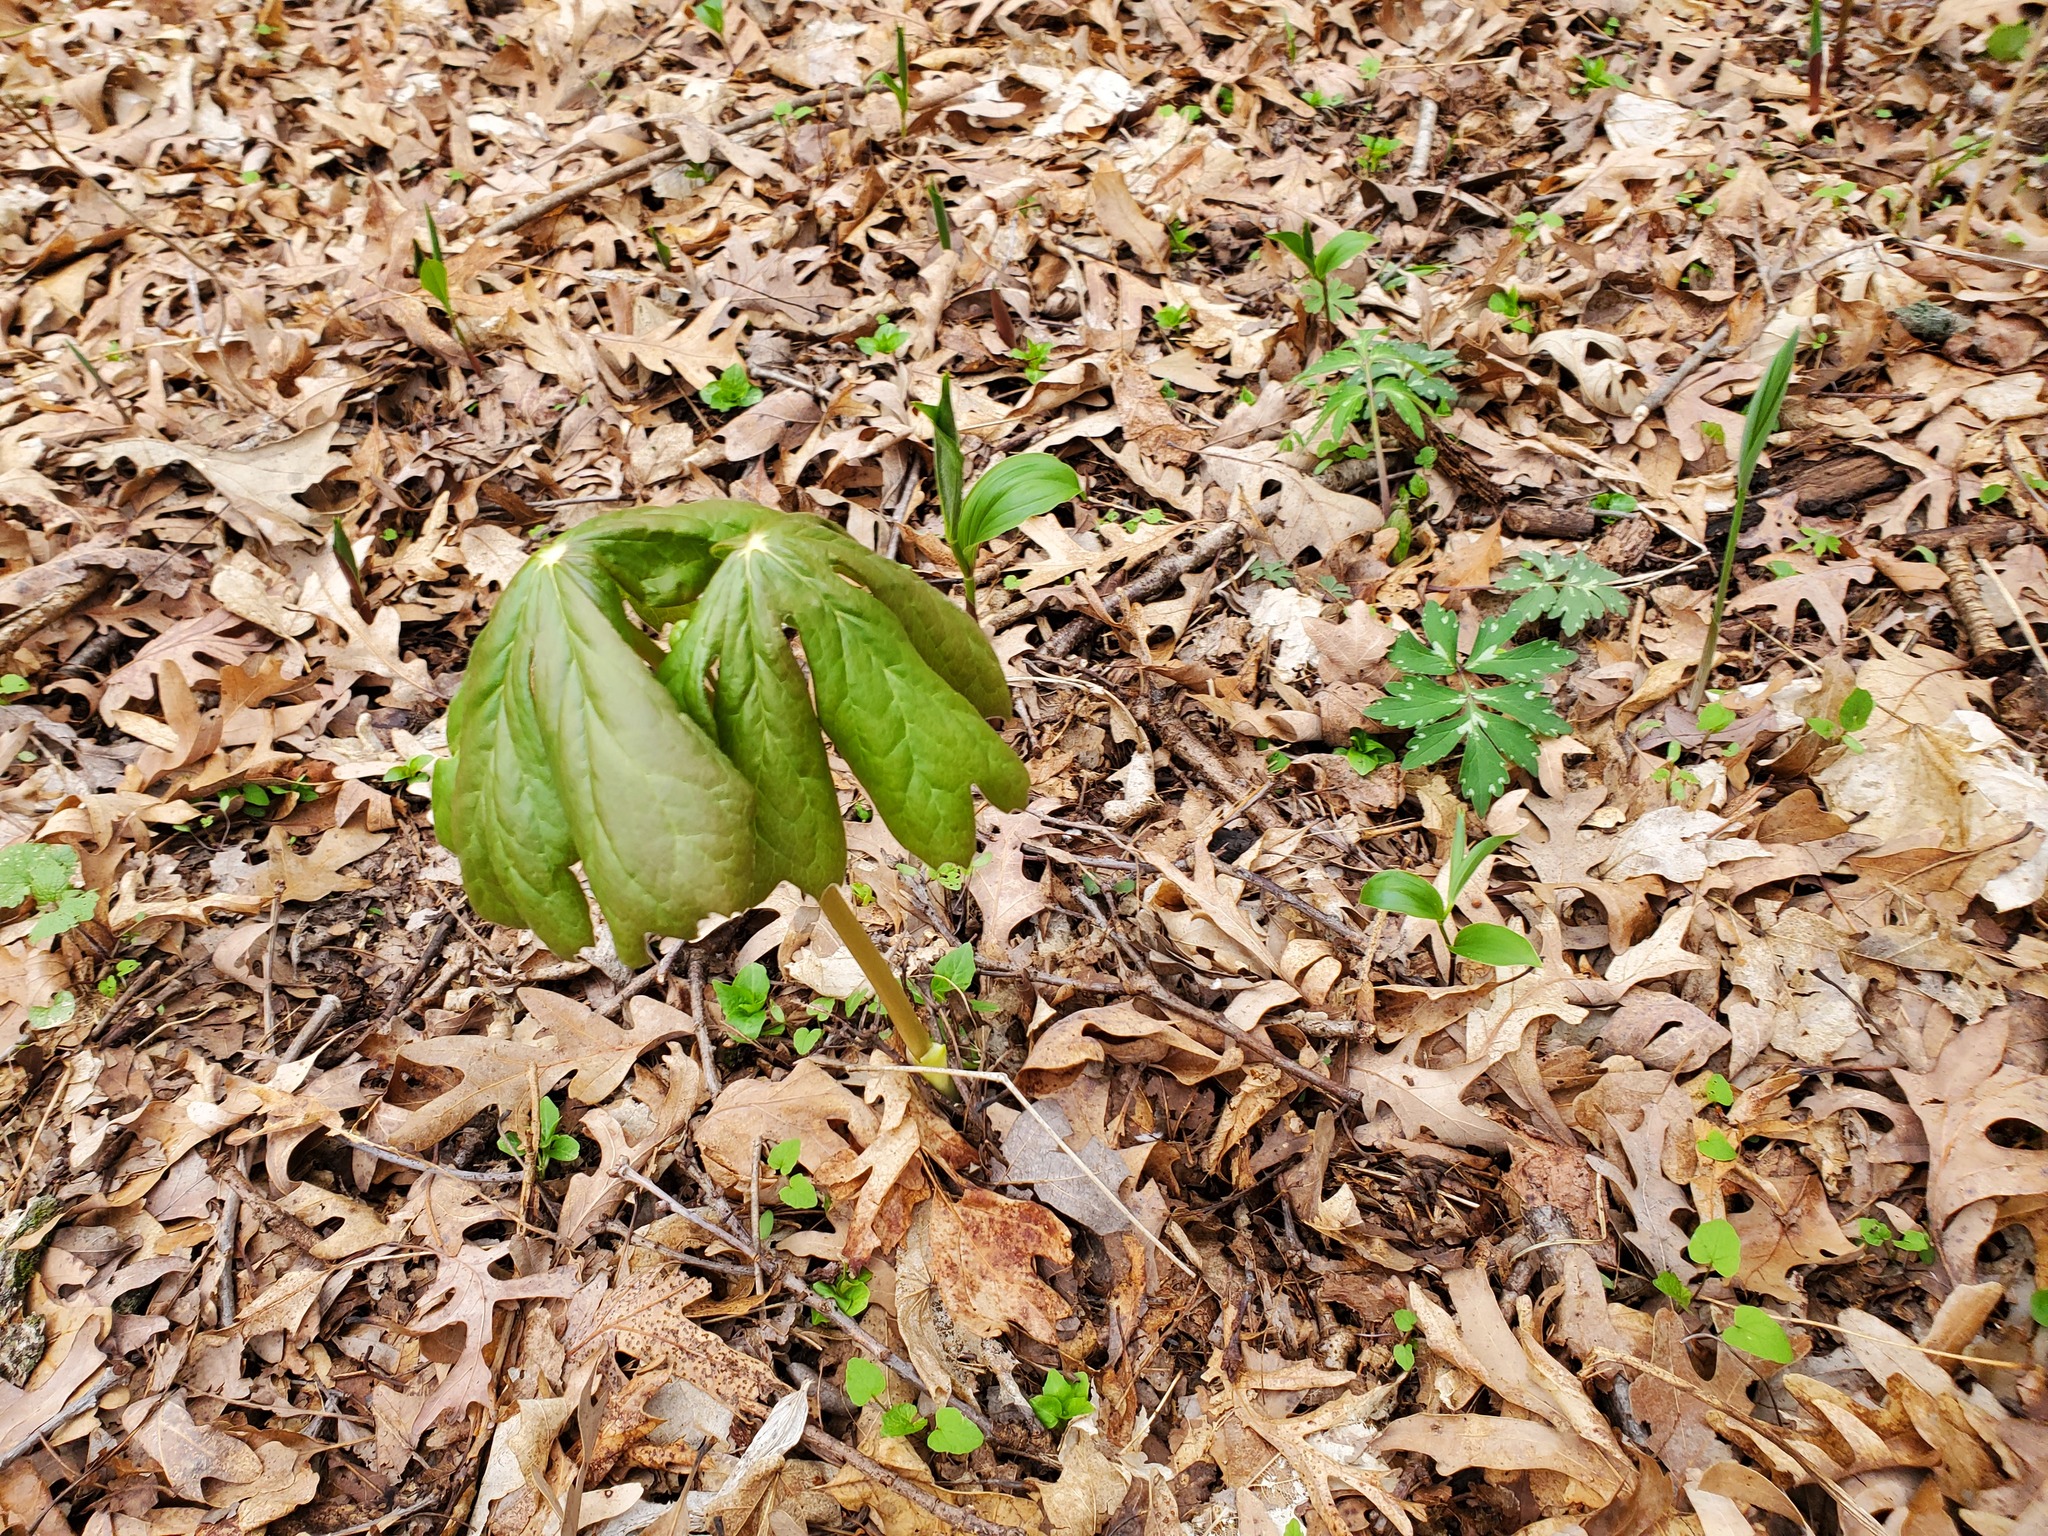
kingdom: Plantae
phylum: Tracheophyta
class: Magnoliopsida
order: Ranunculales
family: Berberidaceae
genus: Podophyllum
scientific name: Podophyllum peltatum
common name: Wild mandrake
